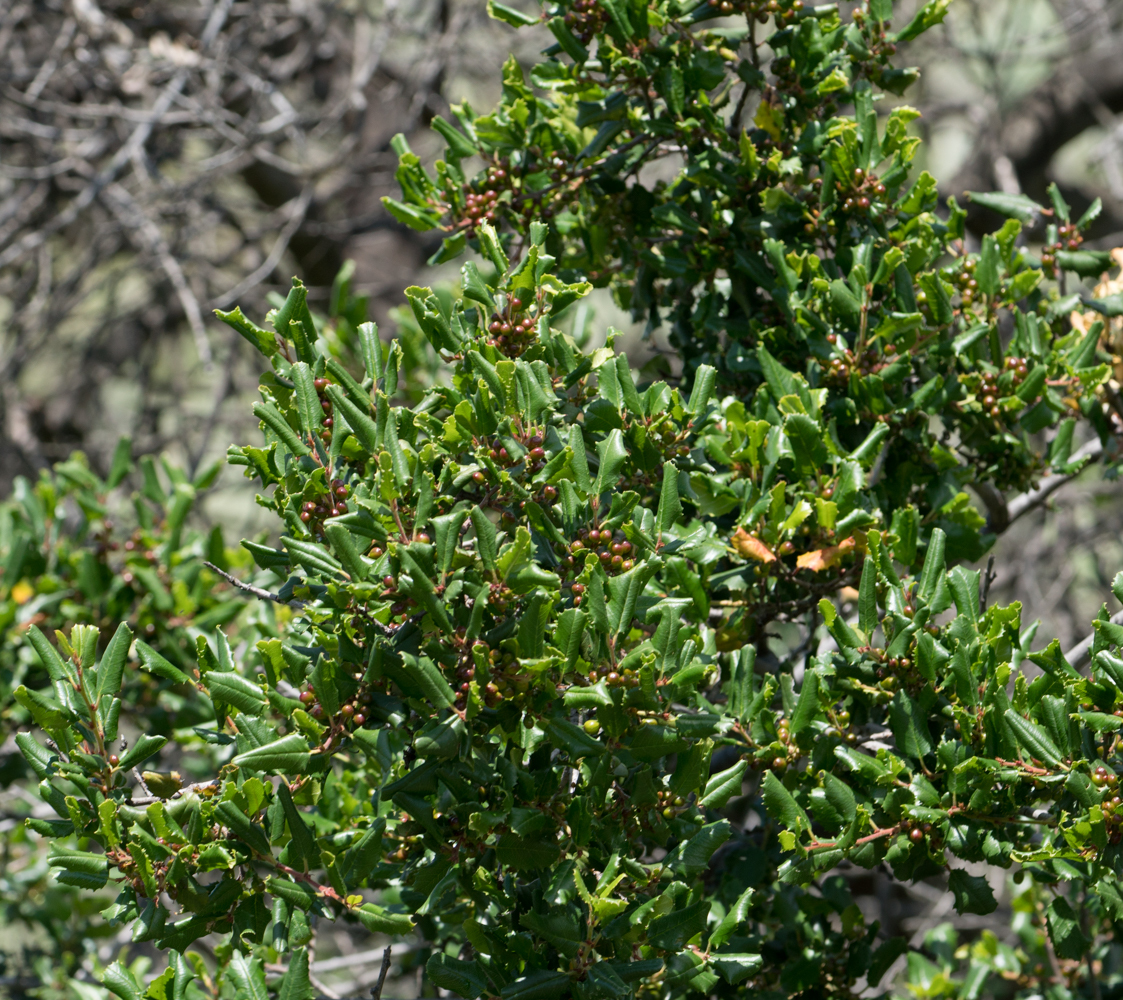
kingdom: Plantae
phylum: Tracheophyta
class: Magnoliopsida
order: Rosales
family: Rhamnaceae
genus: Endotropis
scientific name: Endotropis crocea
